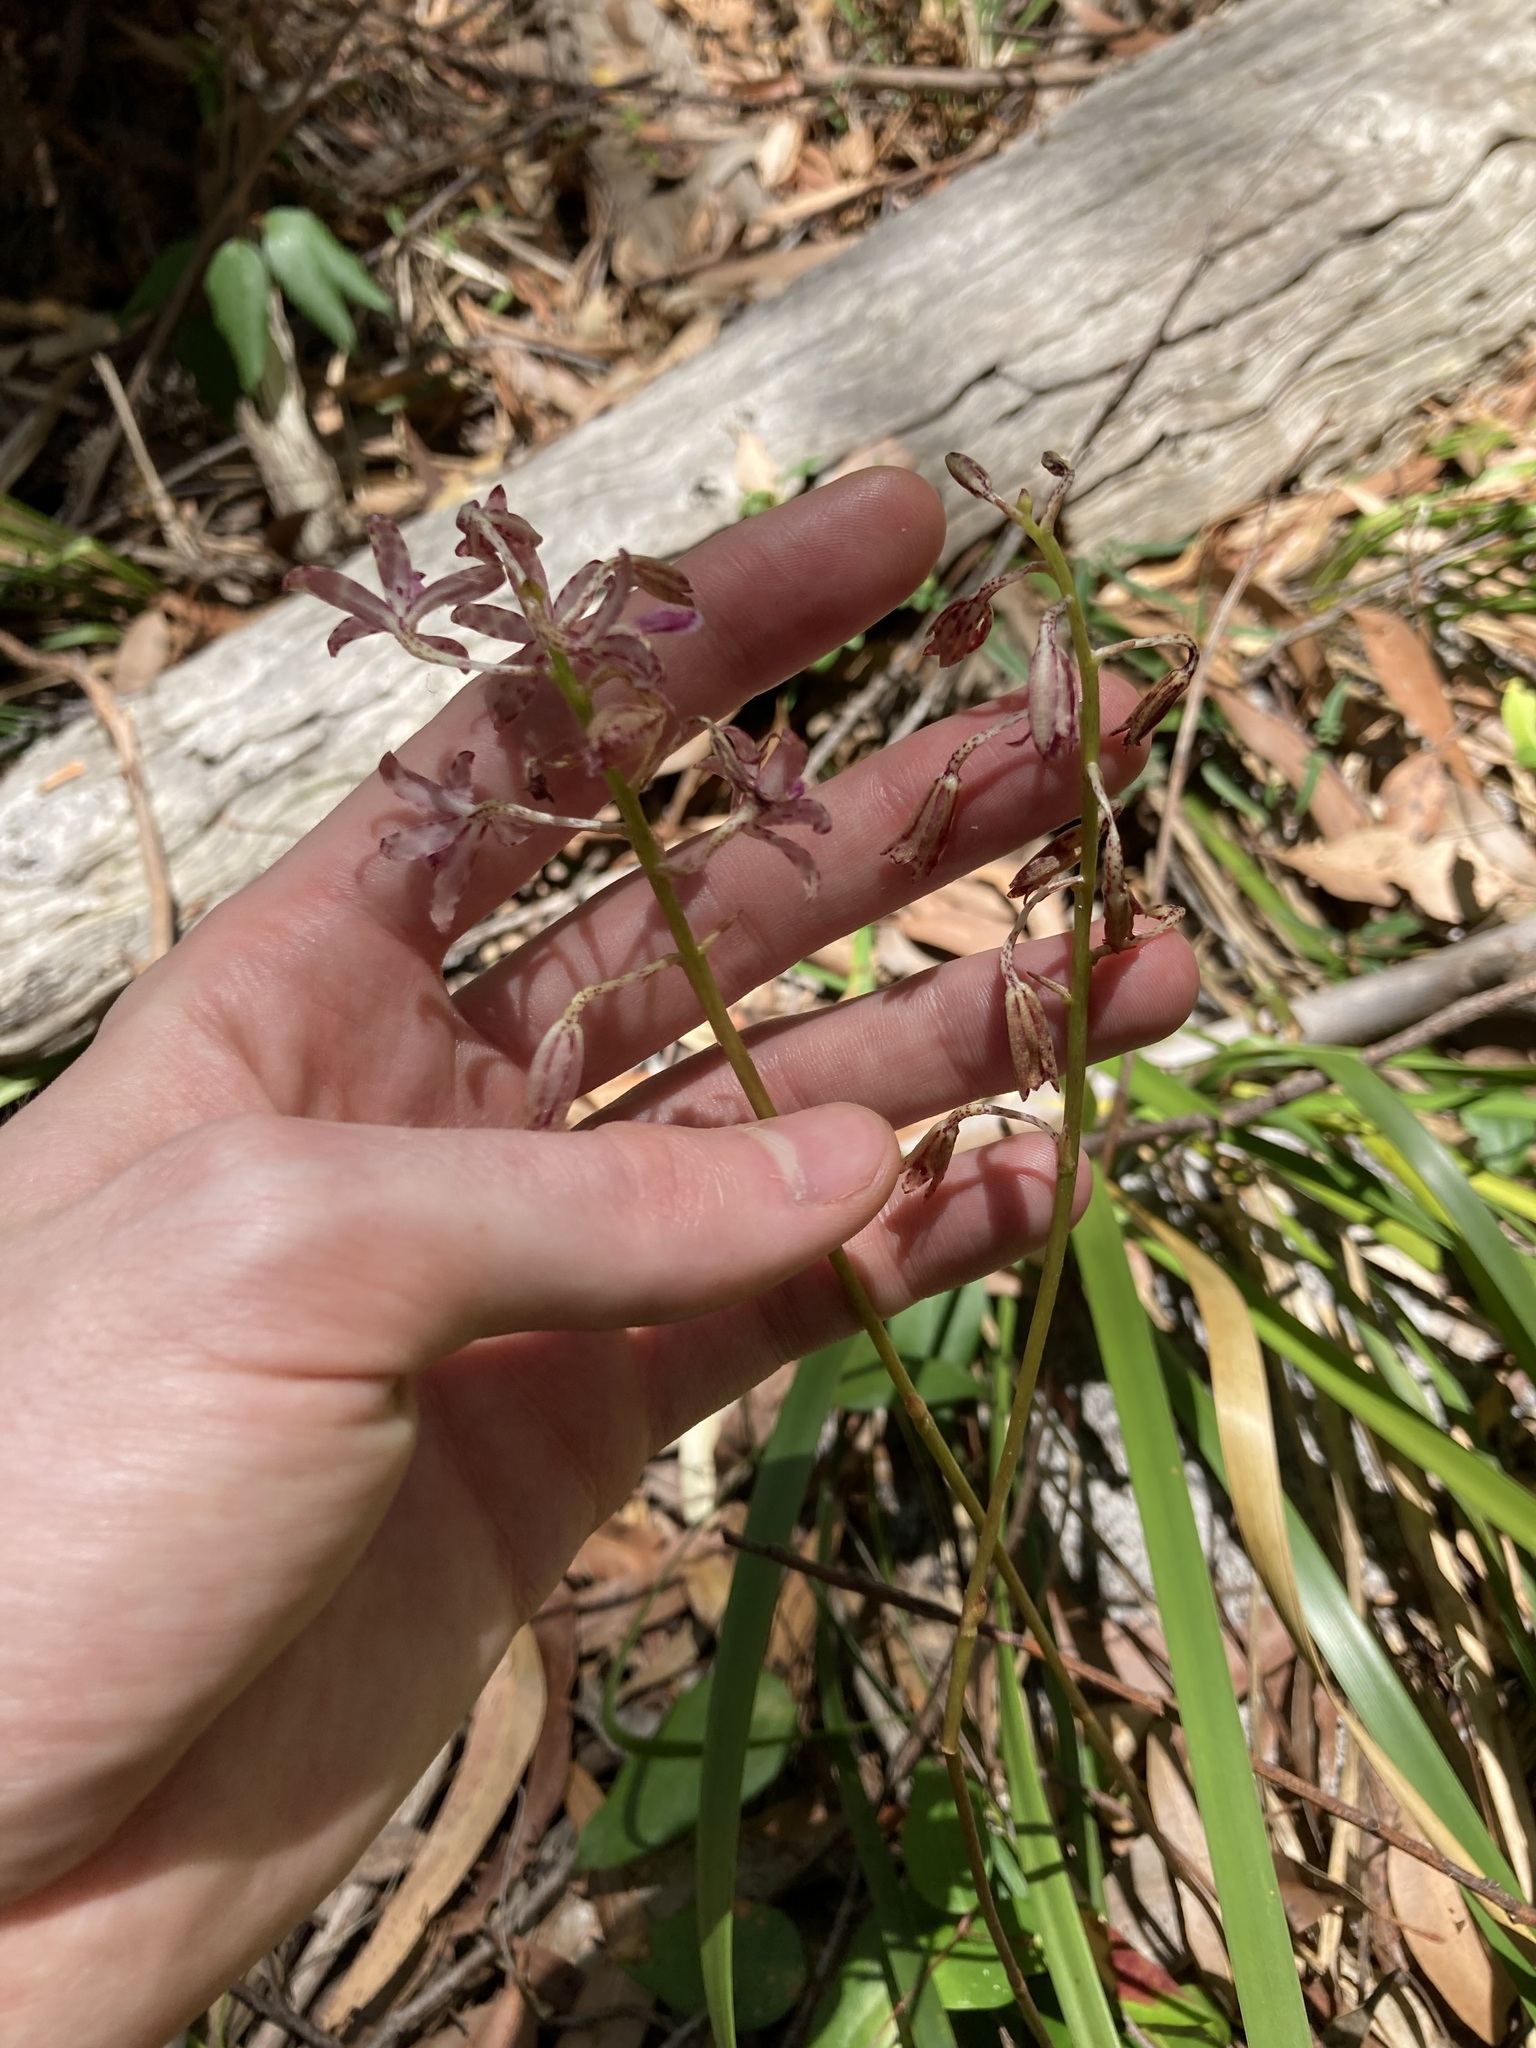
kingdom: Plantae
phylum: Tracheophyta
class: Liliopsida
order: Asparagales
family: Orchidaceae
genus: Dipodium
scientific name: Dipodium variegatum
